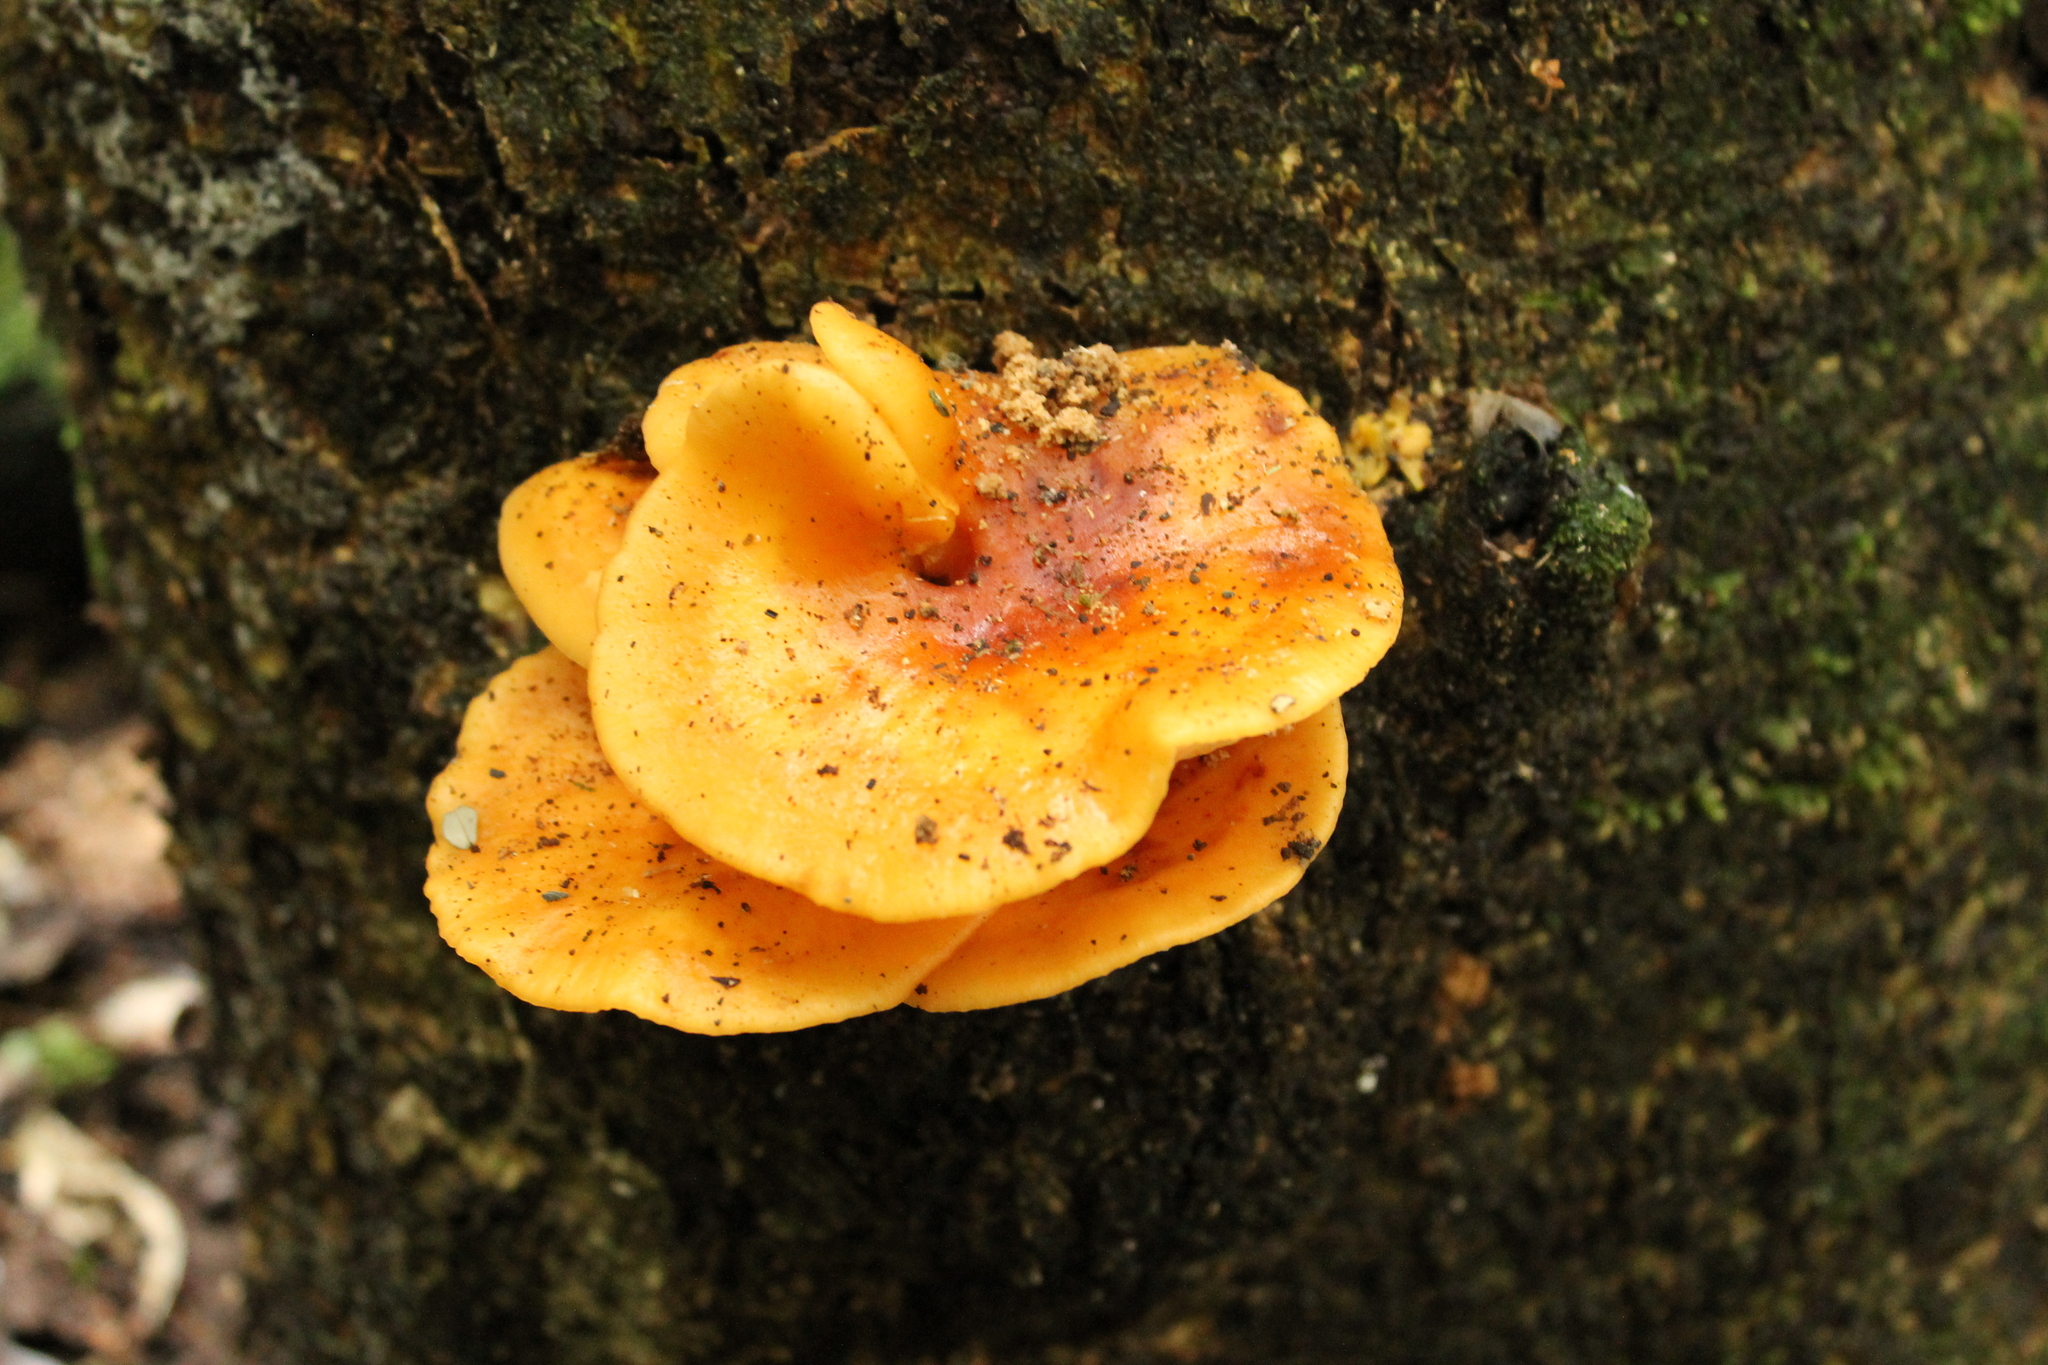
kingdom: Fungi
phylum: Basidiomycota
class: Agaricomycetes
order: Agaricales
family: Physalacriaceae
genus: Flammulina
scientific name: Flammulina velutipes
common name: Velvet shank
